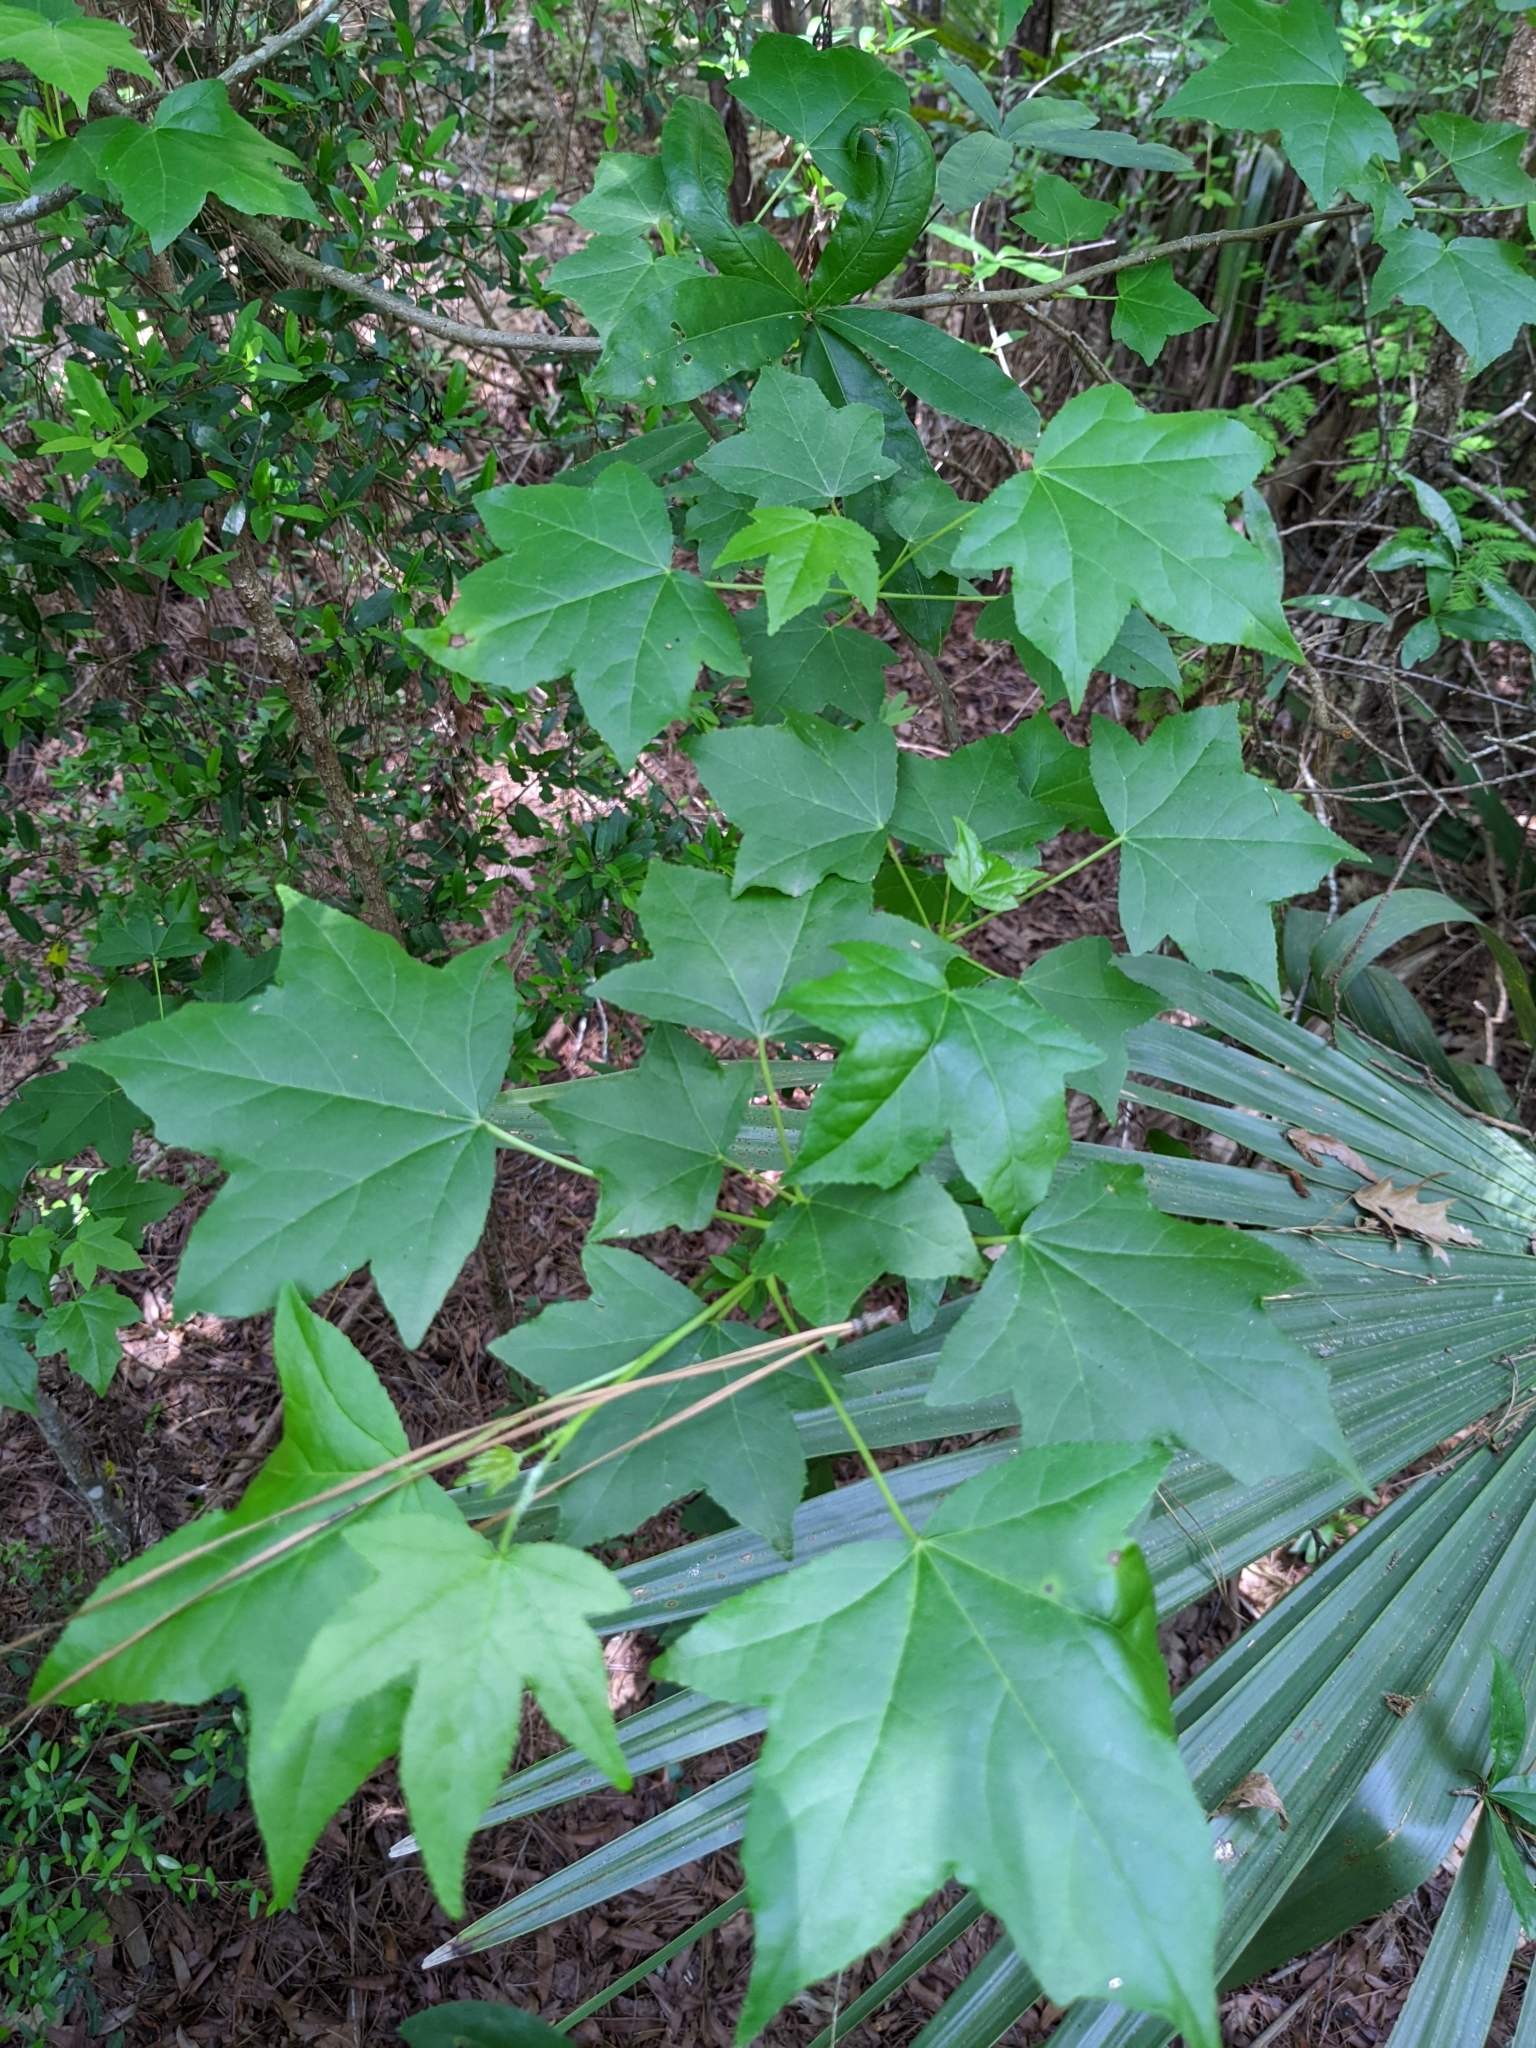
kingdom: Plantae
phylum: Tracheophyta
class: Magnoliopsida
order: Saxifragales
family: Altingiaceae
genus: Liquidambar
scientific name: Liquidambar styraciflua
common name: Sweet gum
